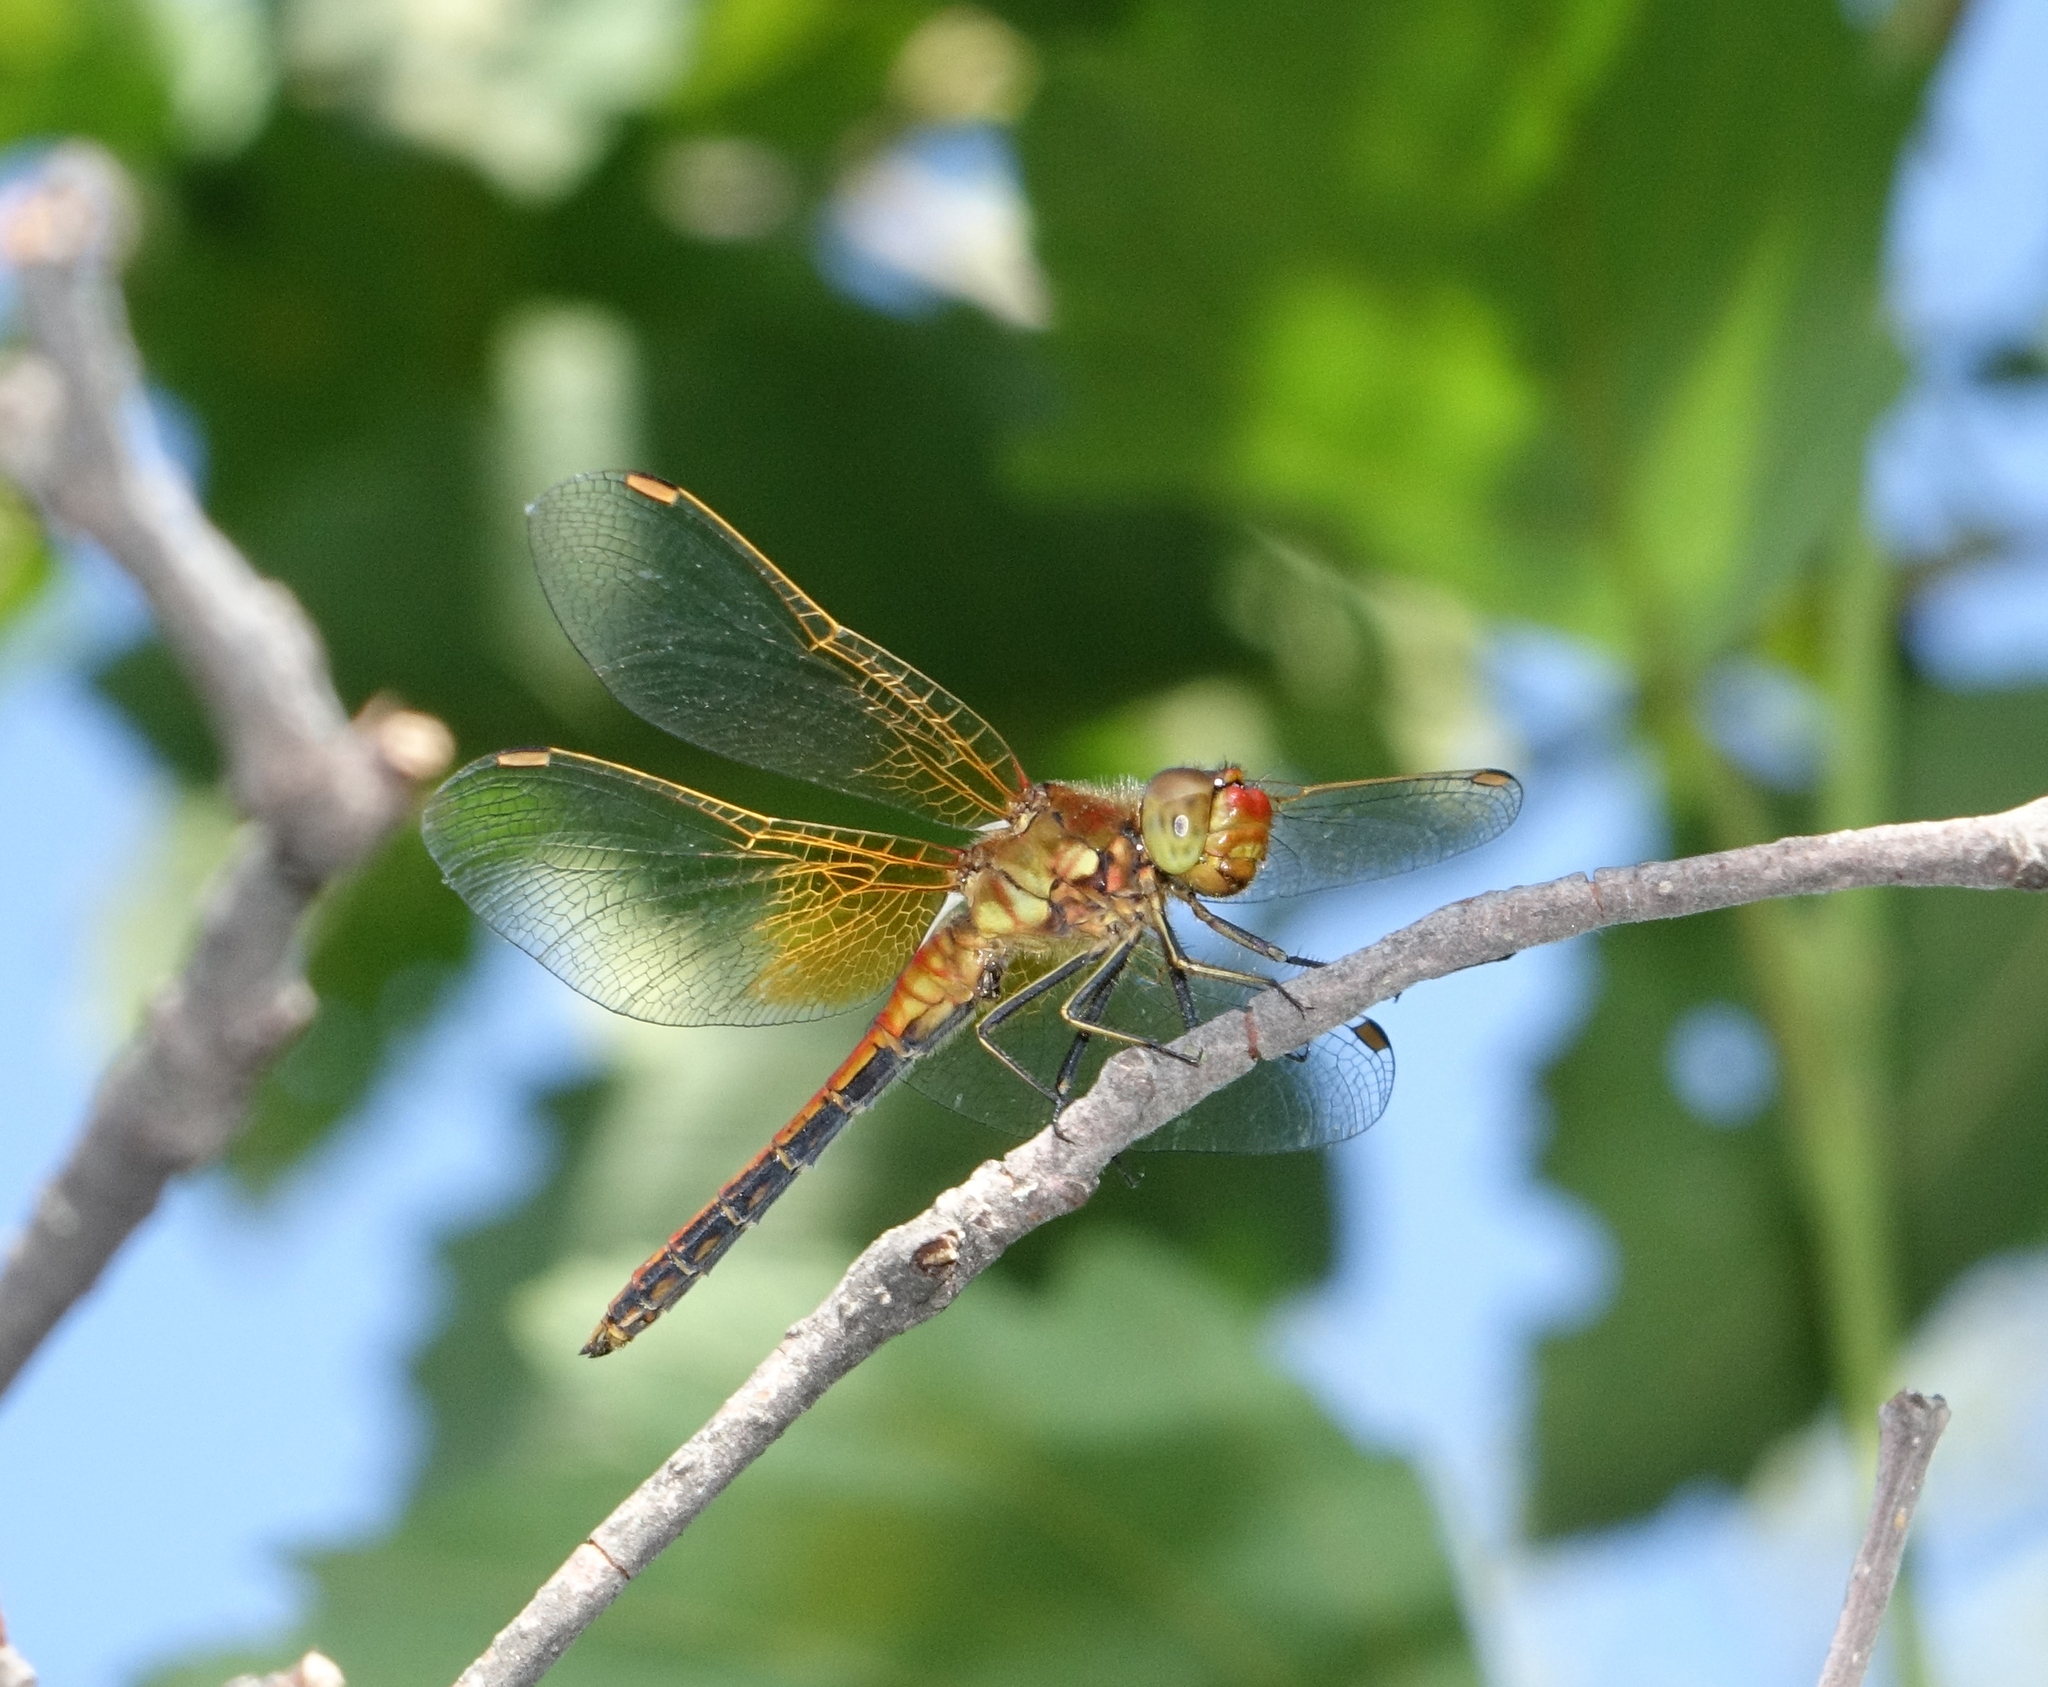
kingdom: Animalia
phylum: Arthropoda
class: Insecta
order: Odonata
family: Libellulidae
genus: Sympetrum
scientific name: Sympetrum flaveolum
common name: Yellow-winged darter
